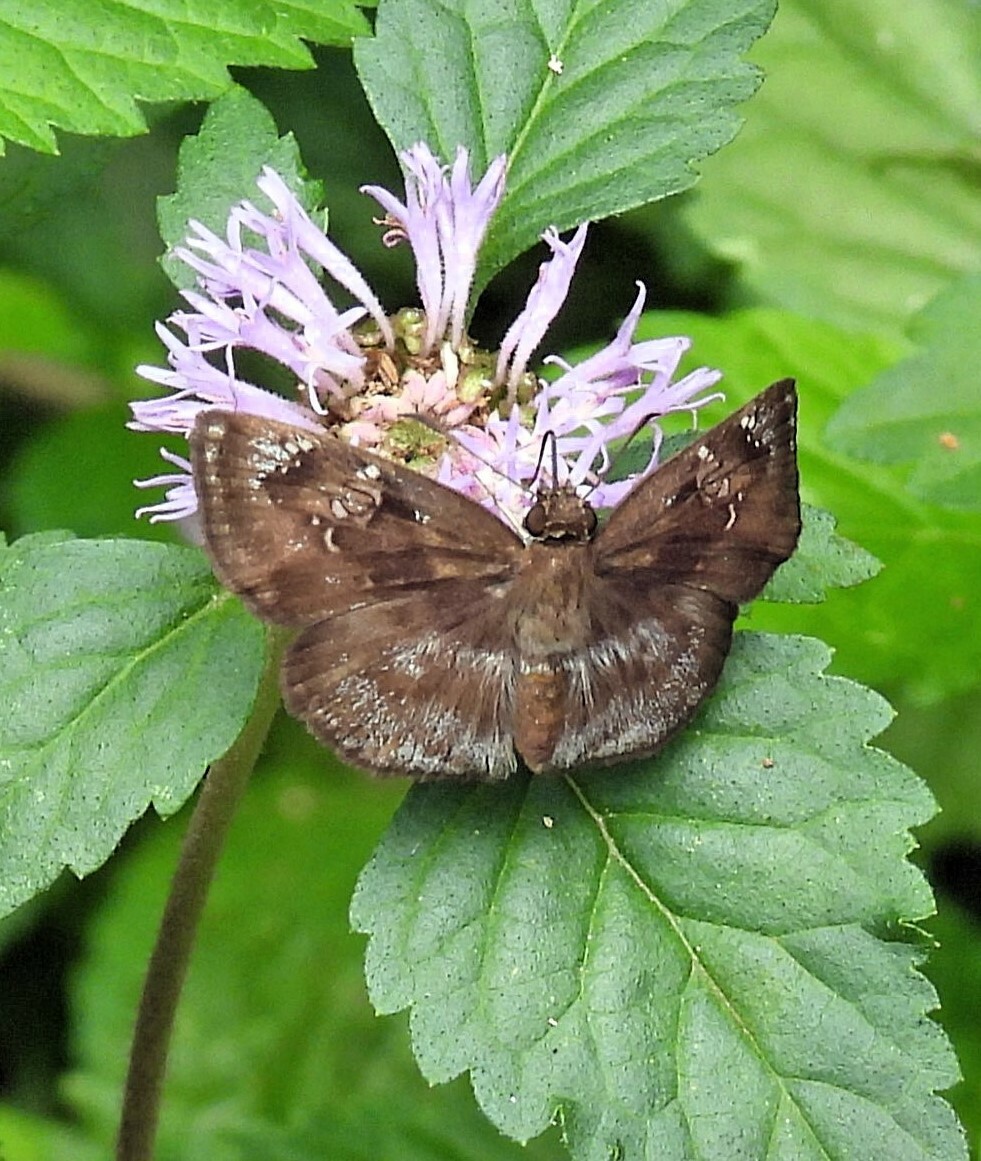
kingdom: Animalia
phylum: Arthropoda
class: Insecta
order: Lepidoptera
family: Hesperiidae
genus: Quadrus
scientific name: Quadrus ulucida
